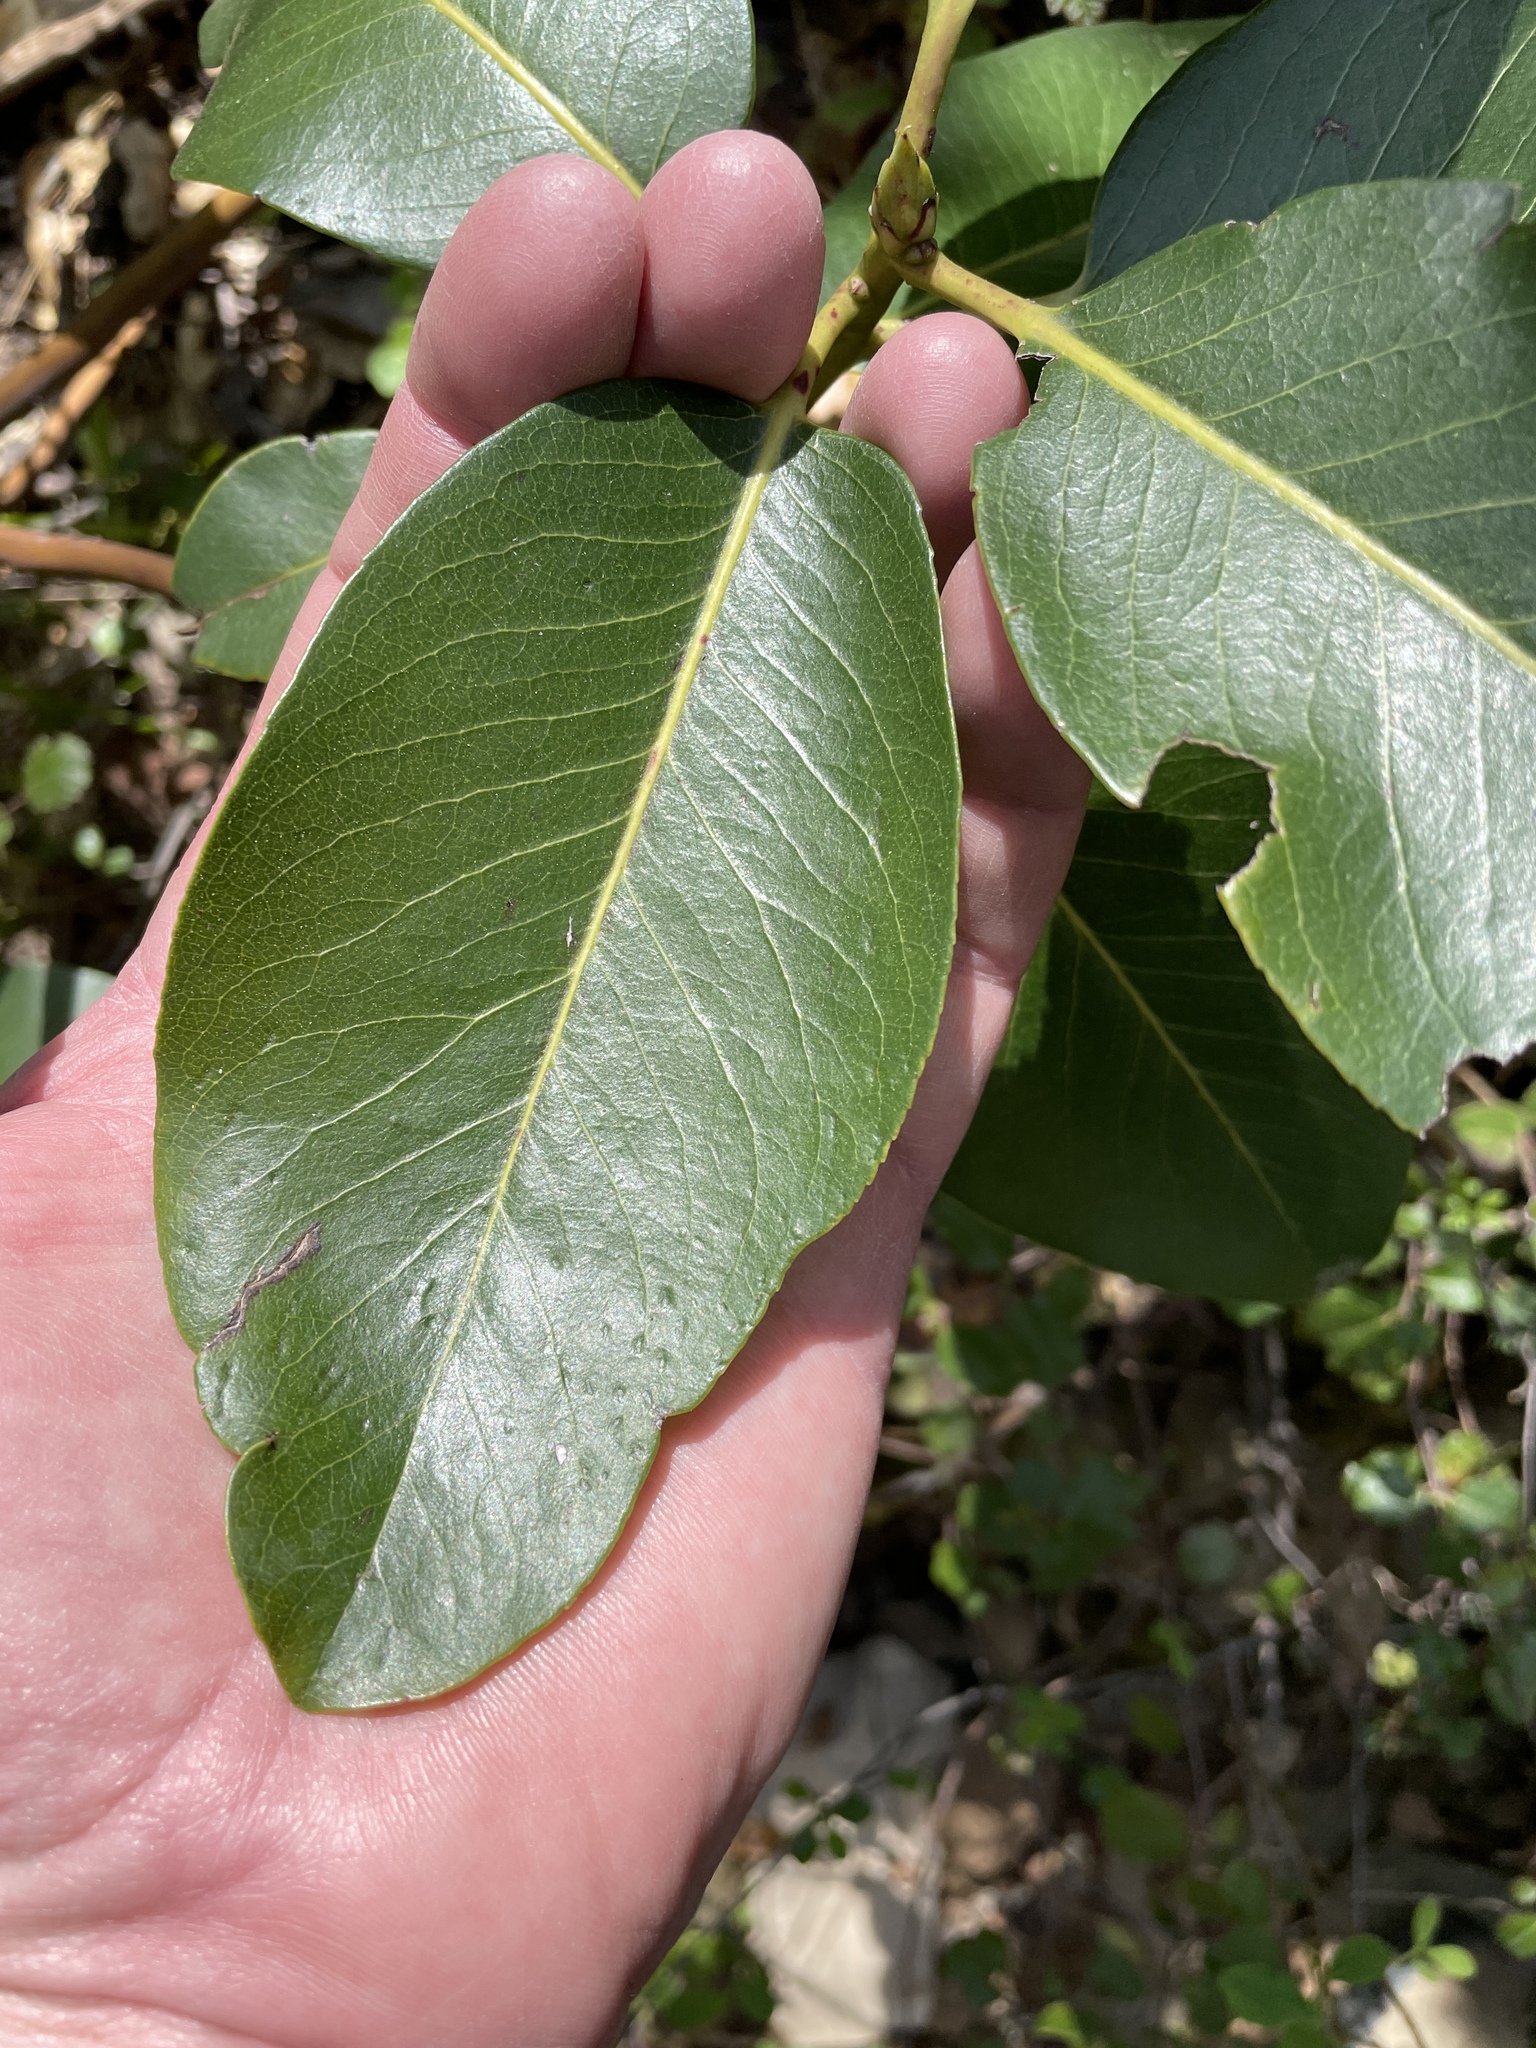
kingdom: Plantae
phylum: Tracheophyta
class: Magnoliopsida
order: Ericales
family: Ericaceae
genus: Arbutus
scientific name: Arbutus menziesii
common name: Pacific madrone
